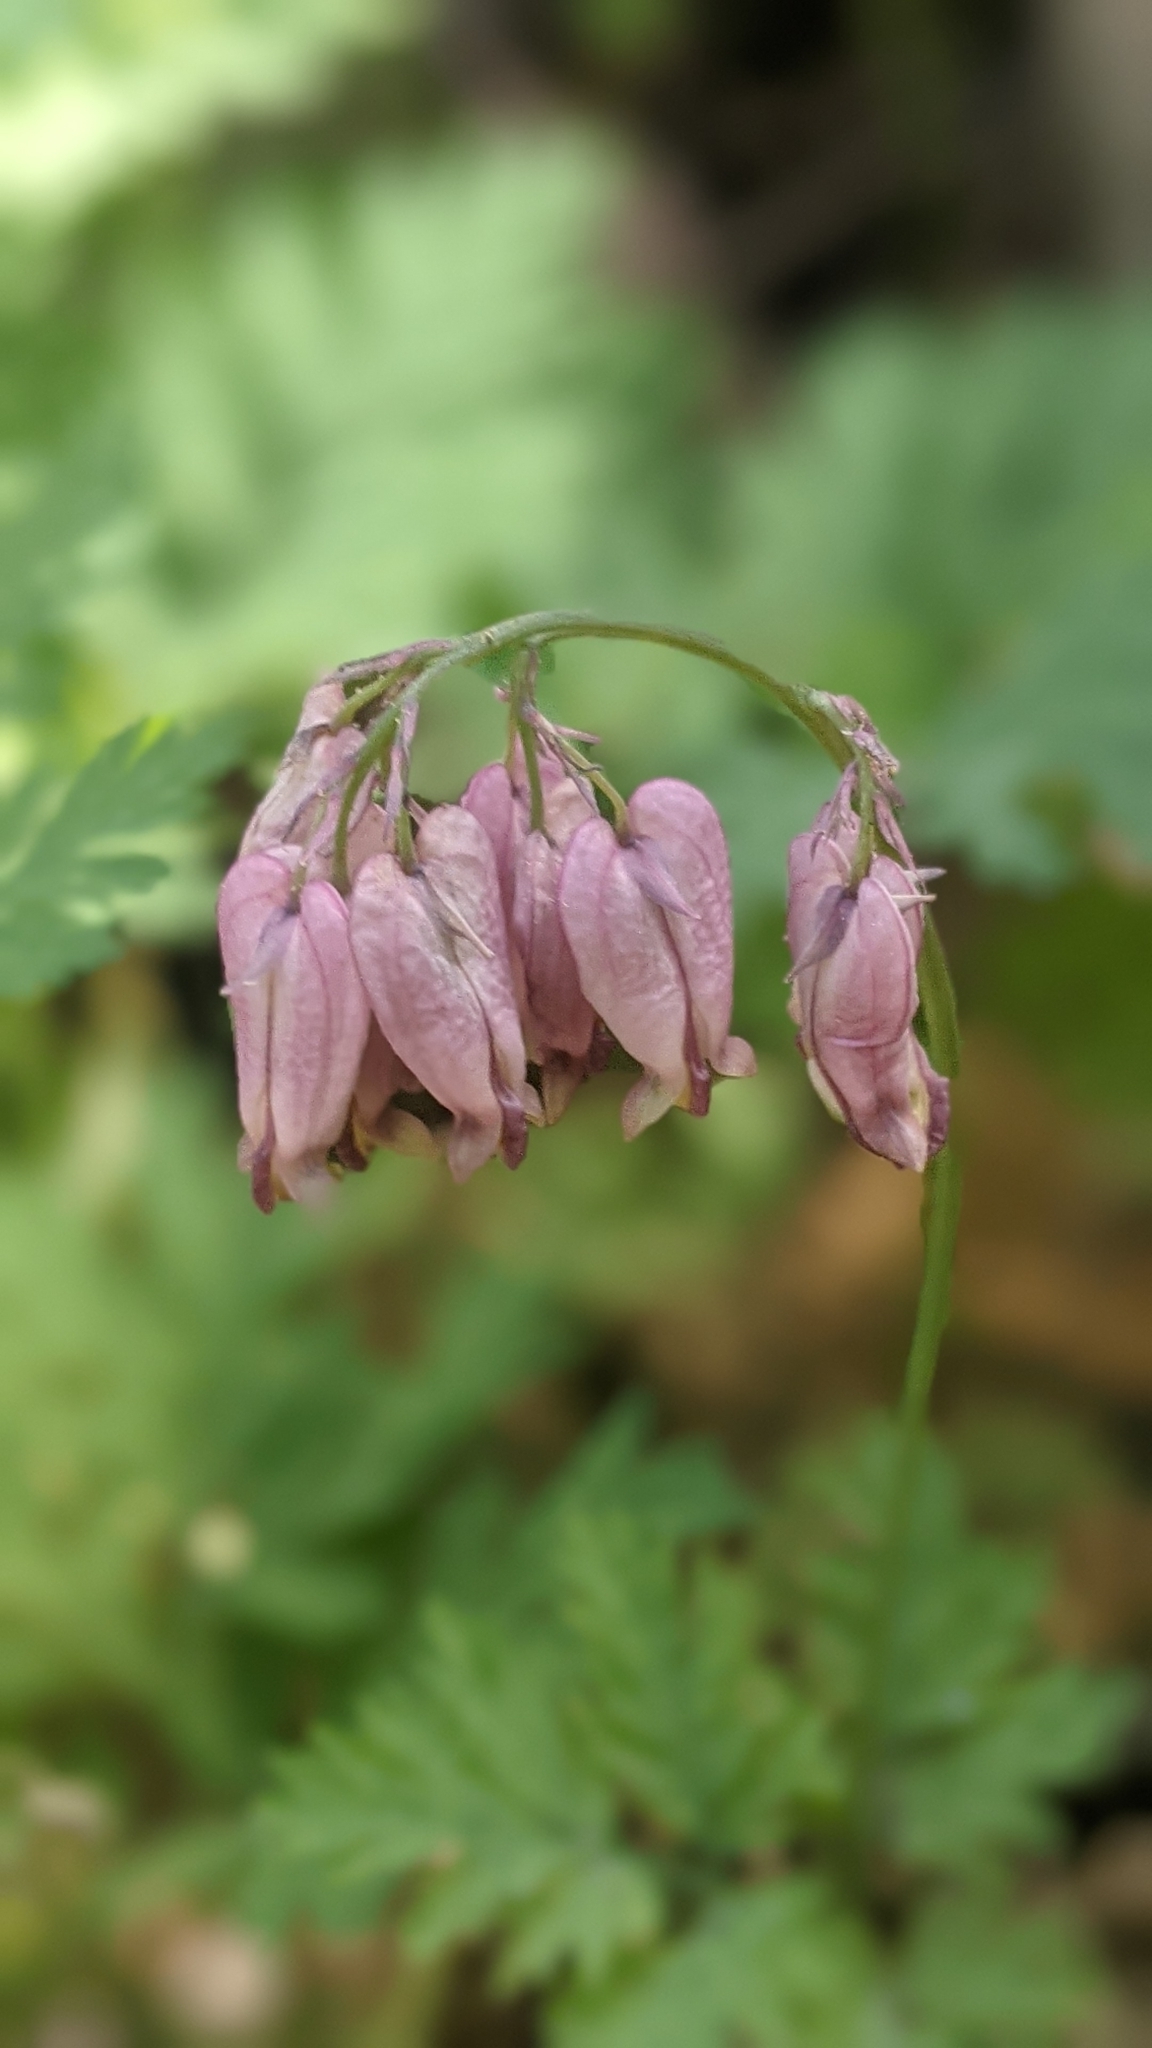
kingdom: Plantae
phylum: Tracheophyta
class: Magnoliopsida
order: Ranunculales
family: Papaveraceae
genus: Dicentra
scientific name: Dicentra formosa
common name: Bleeding-heart
